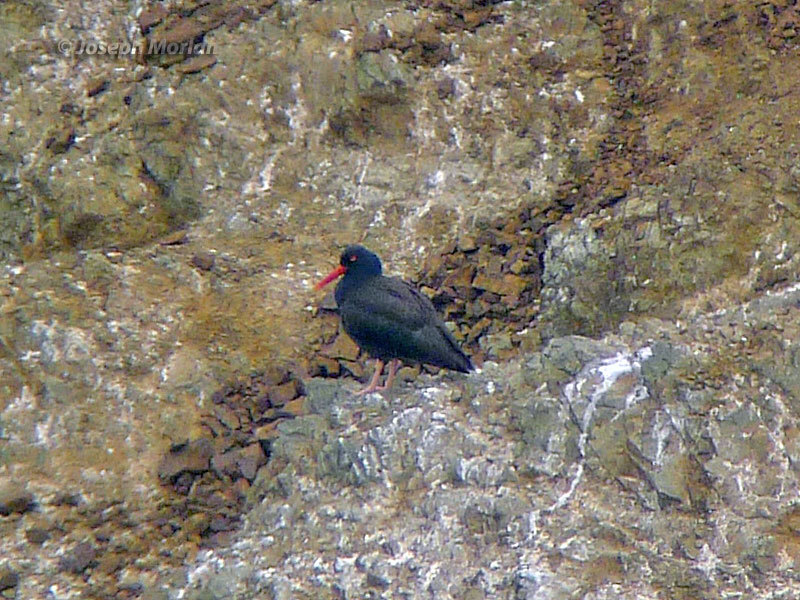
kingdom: Animalia
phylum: Chordata
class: Aves
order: Charadriiformes
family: Haematopodidae
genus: Haematopus
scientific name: Haematopus bachmani
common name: Black oystercatcher
